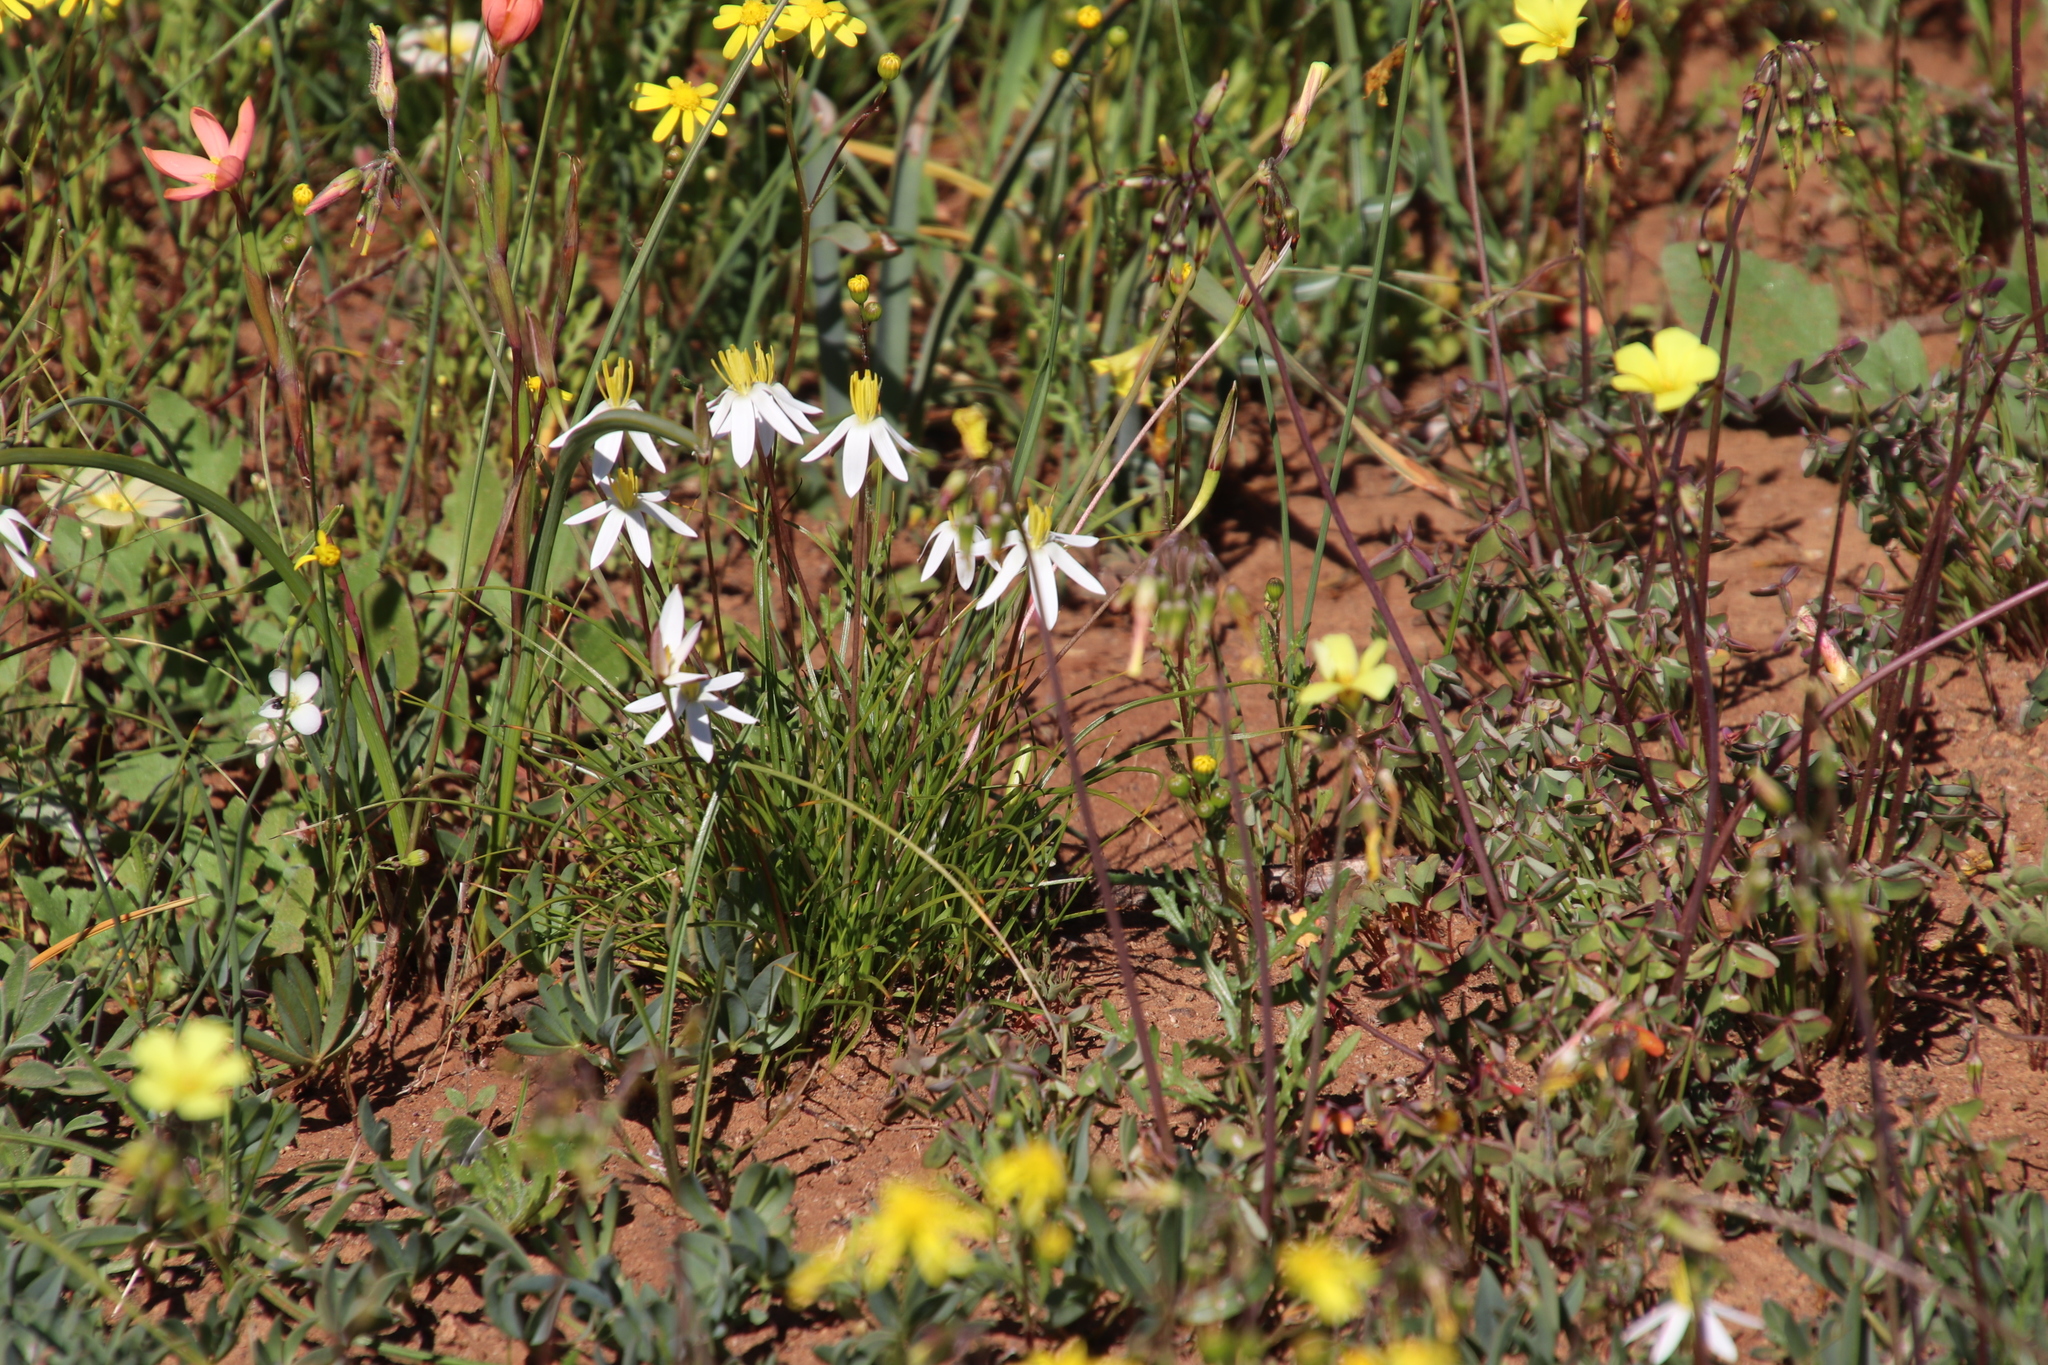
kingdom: Plantae
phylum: Tracheophyta
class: Liliopsida
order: Asparagales
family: Hypoxidaceae
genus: Pauridia
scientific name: Pauridia serrata
